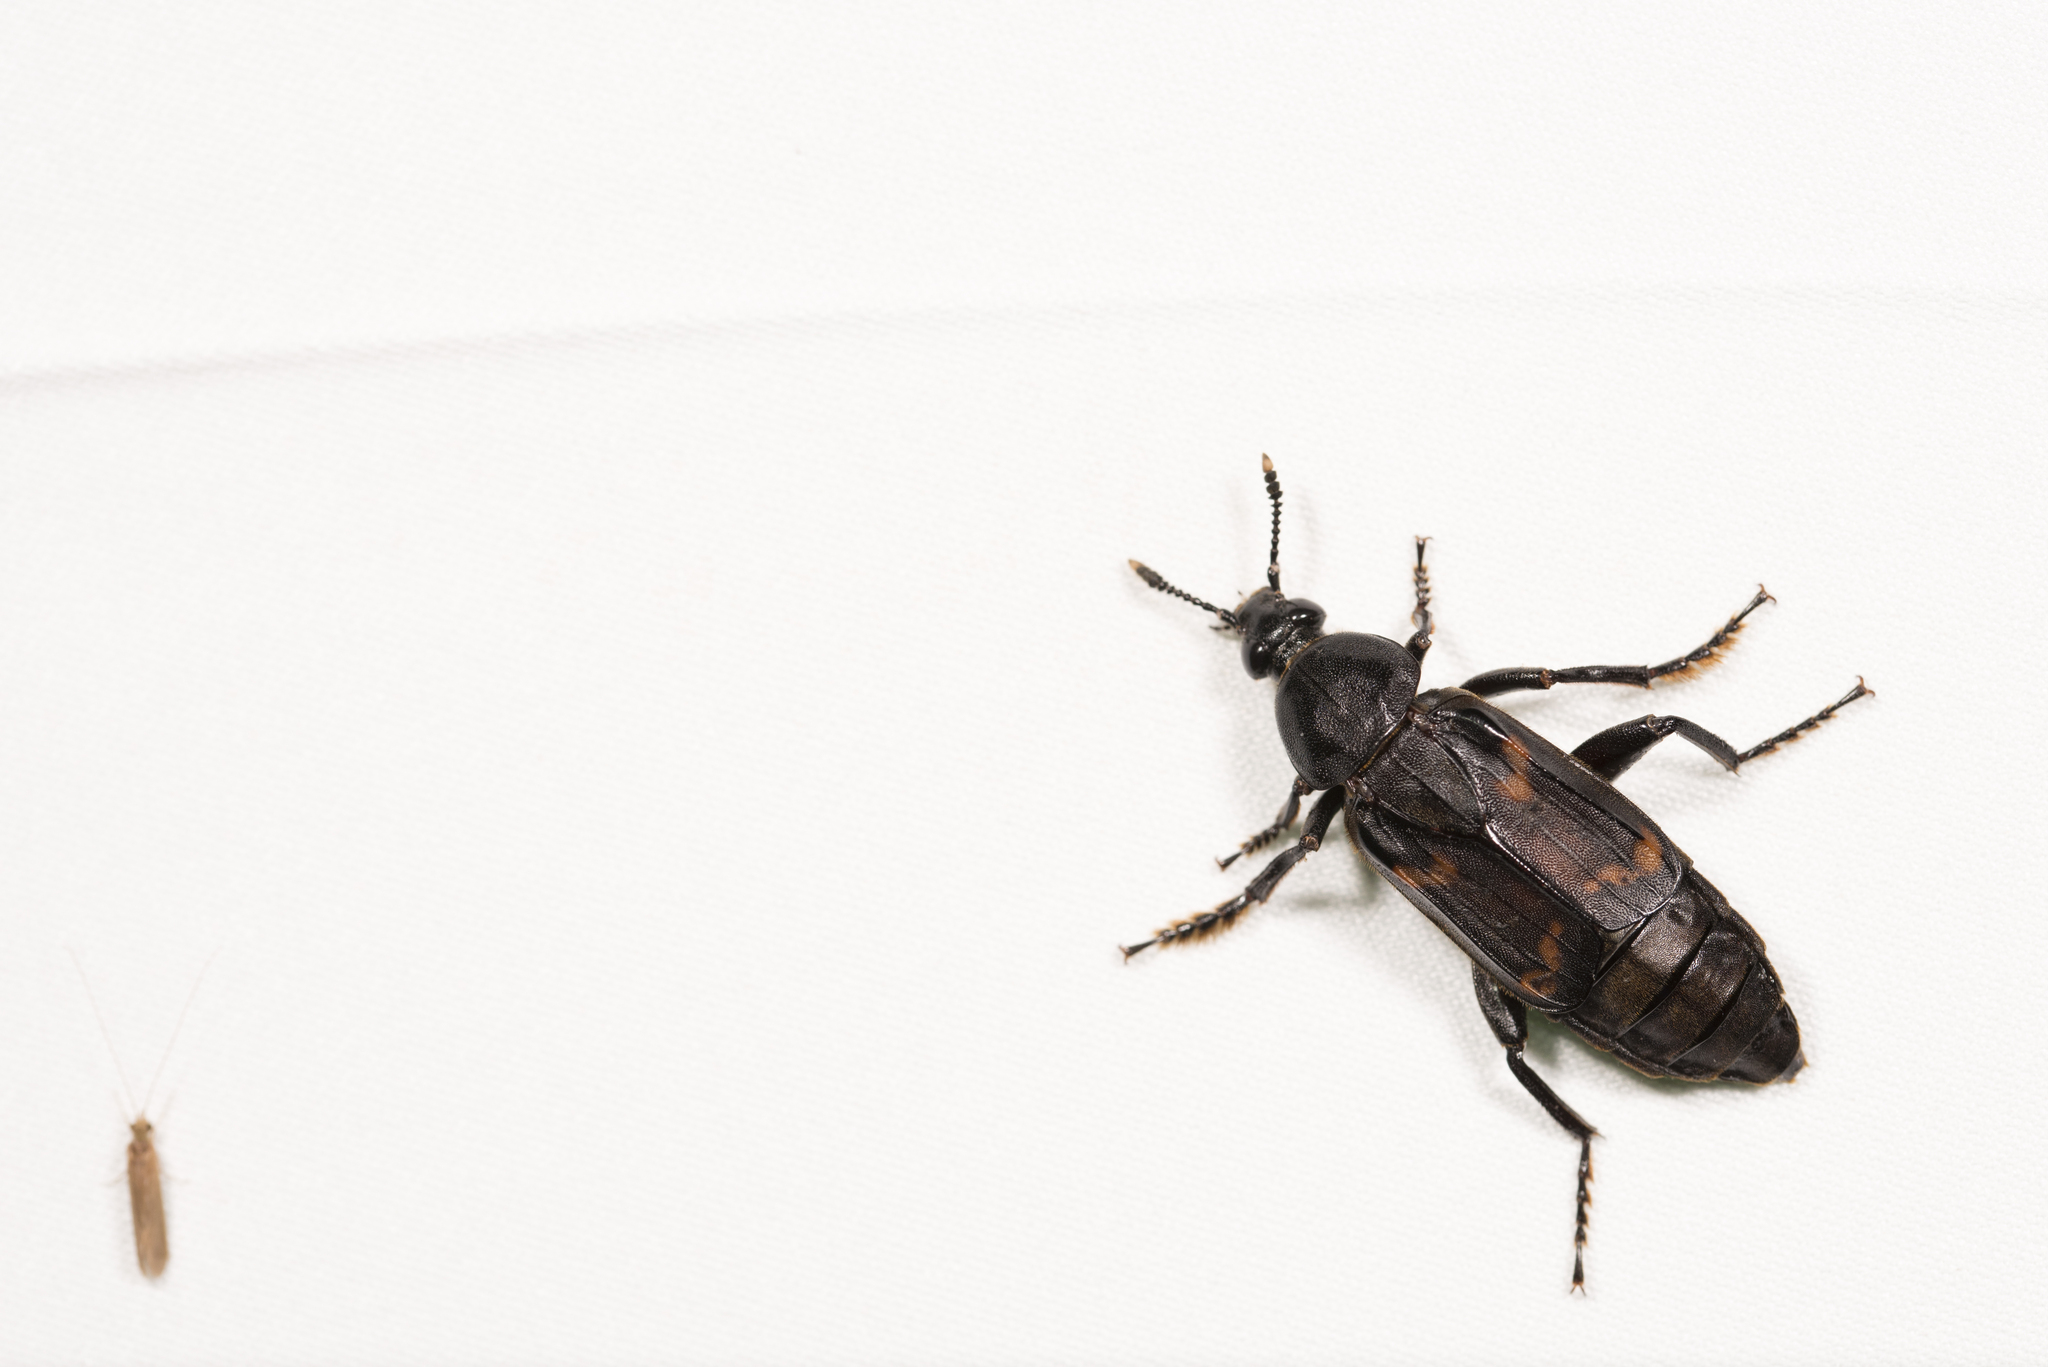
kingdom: Animalia
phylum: Arthropoda
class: Insecta
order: Coleoptera
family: Staphylinidae
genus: Diamesus
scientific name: Diamesus osculans
